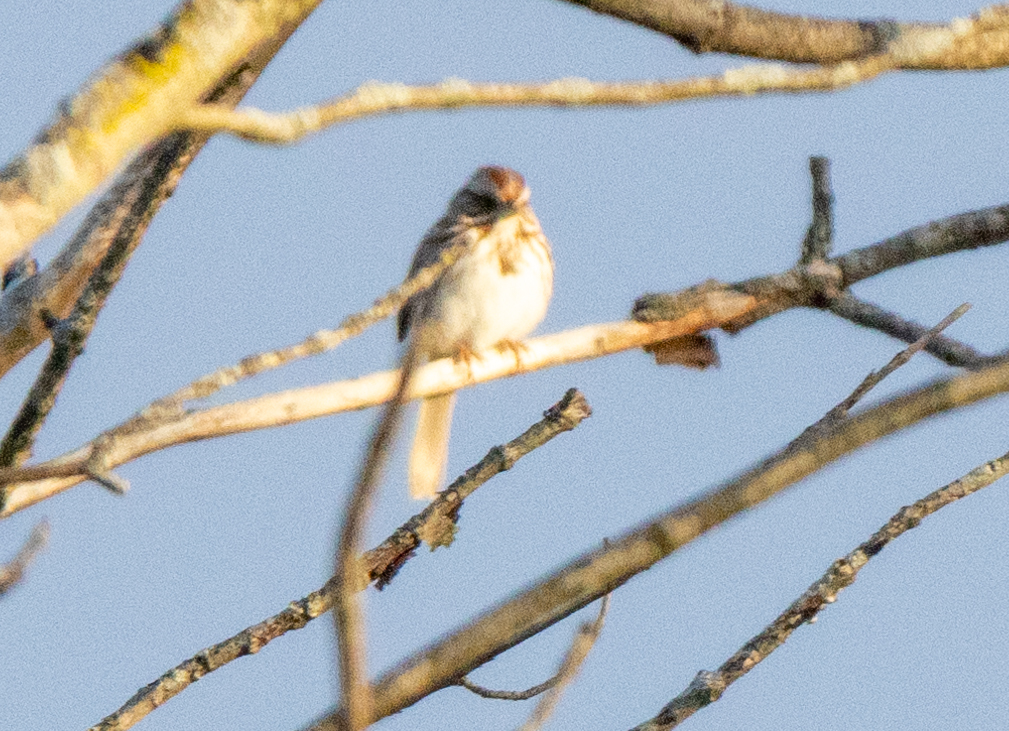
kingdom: Animalia
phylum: Chordata
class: Aves
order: Passeriformes
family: Passerellidae
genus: Melospiza
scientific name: Melospiza melodia
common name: Song sparrow
